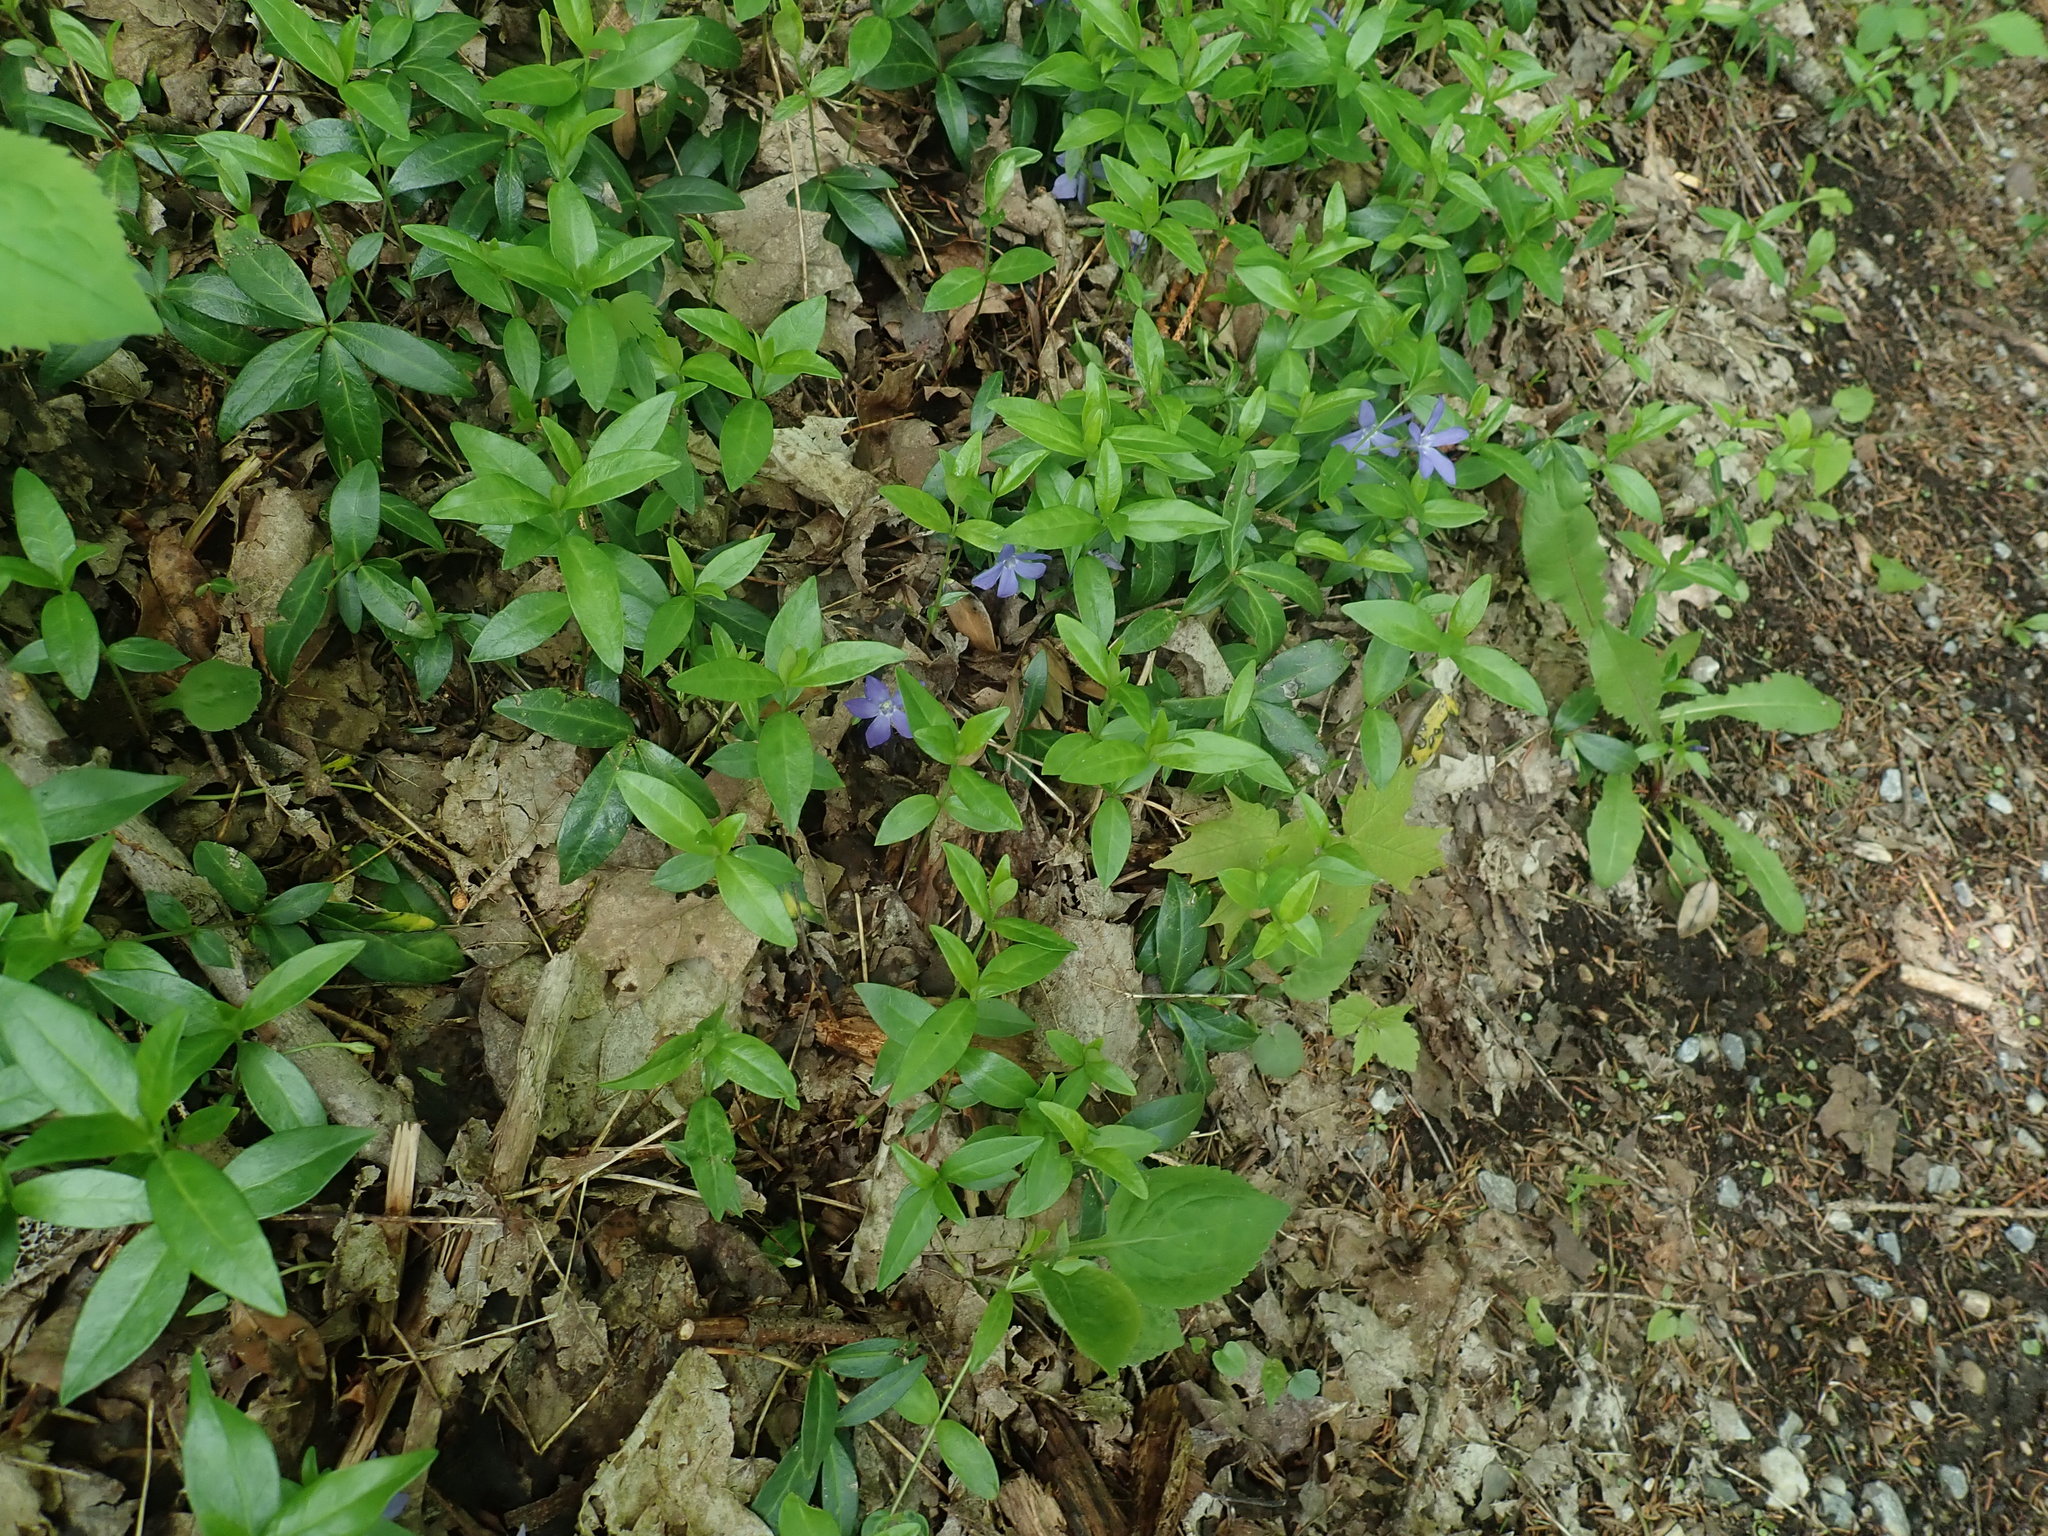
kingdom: Plantae
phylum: Tracheophyta
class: Magnoliopsida
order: Gentianales
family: Apocynaceae
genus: Vinca
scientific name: Vinca minor
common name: Lesser periwinkle
